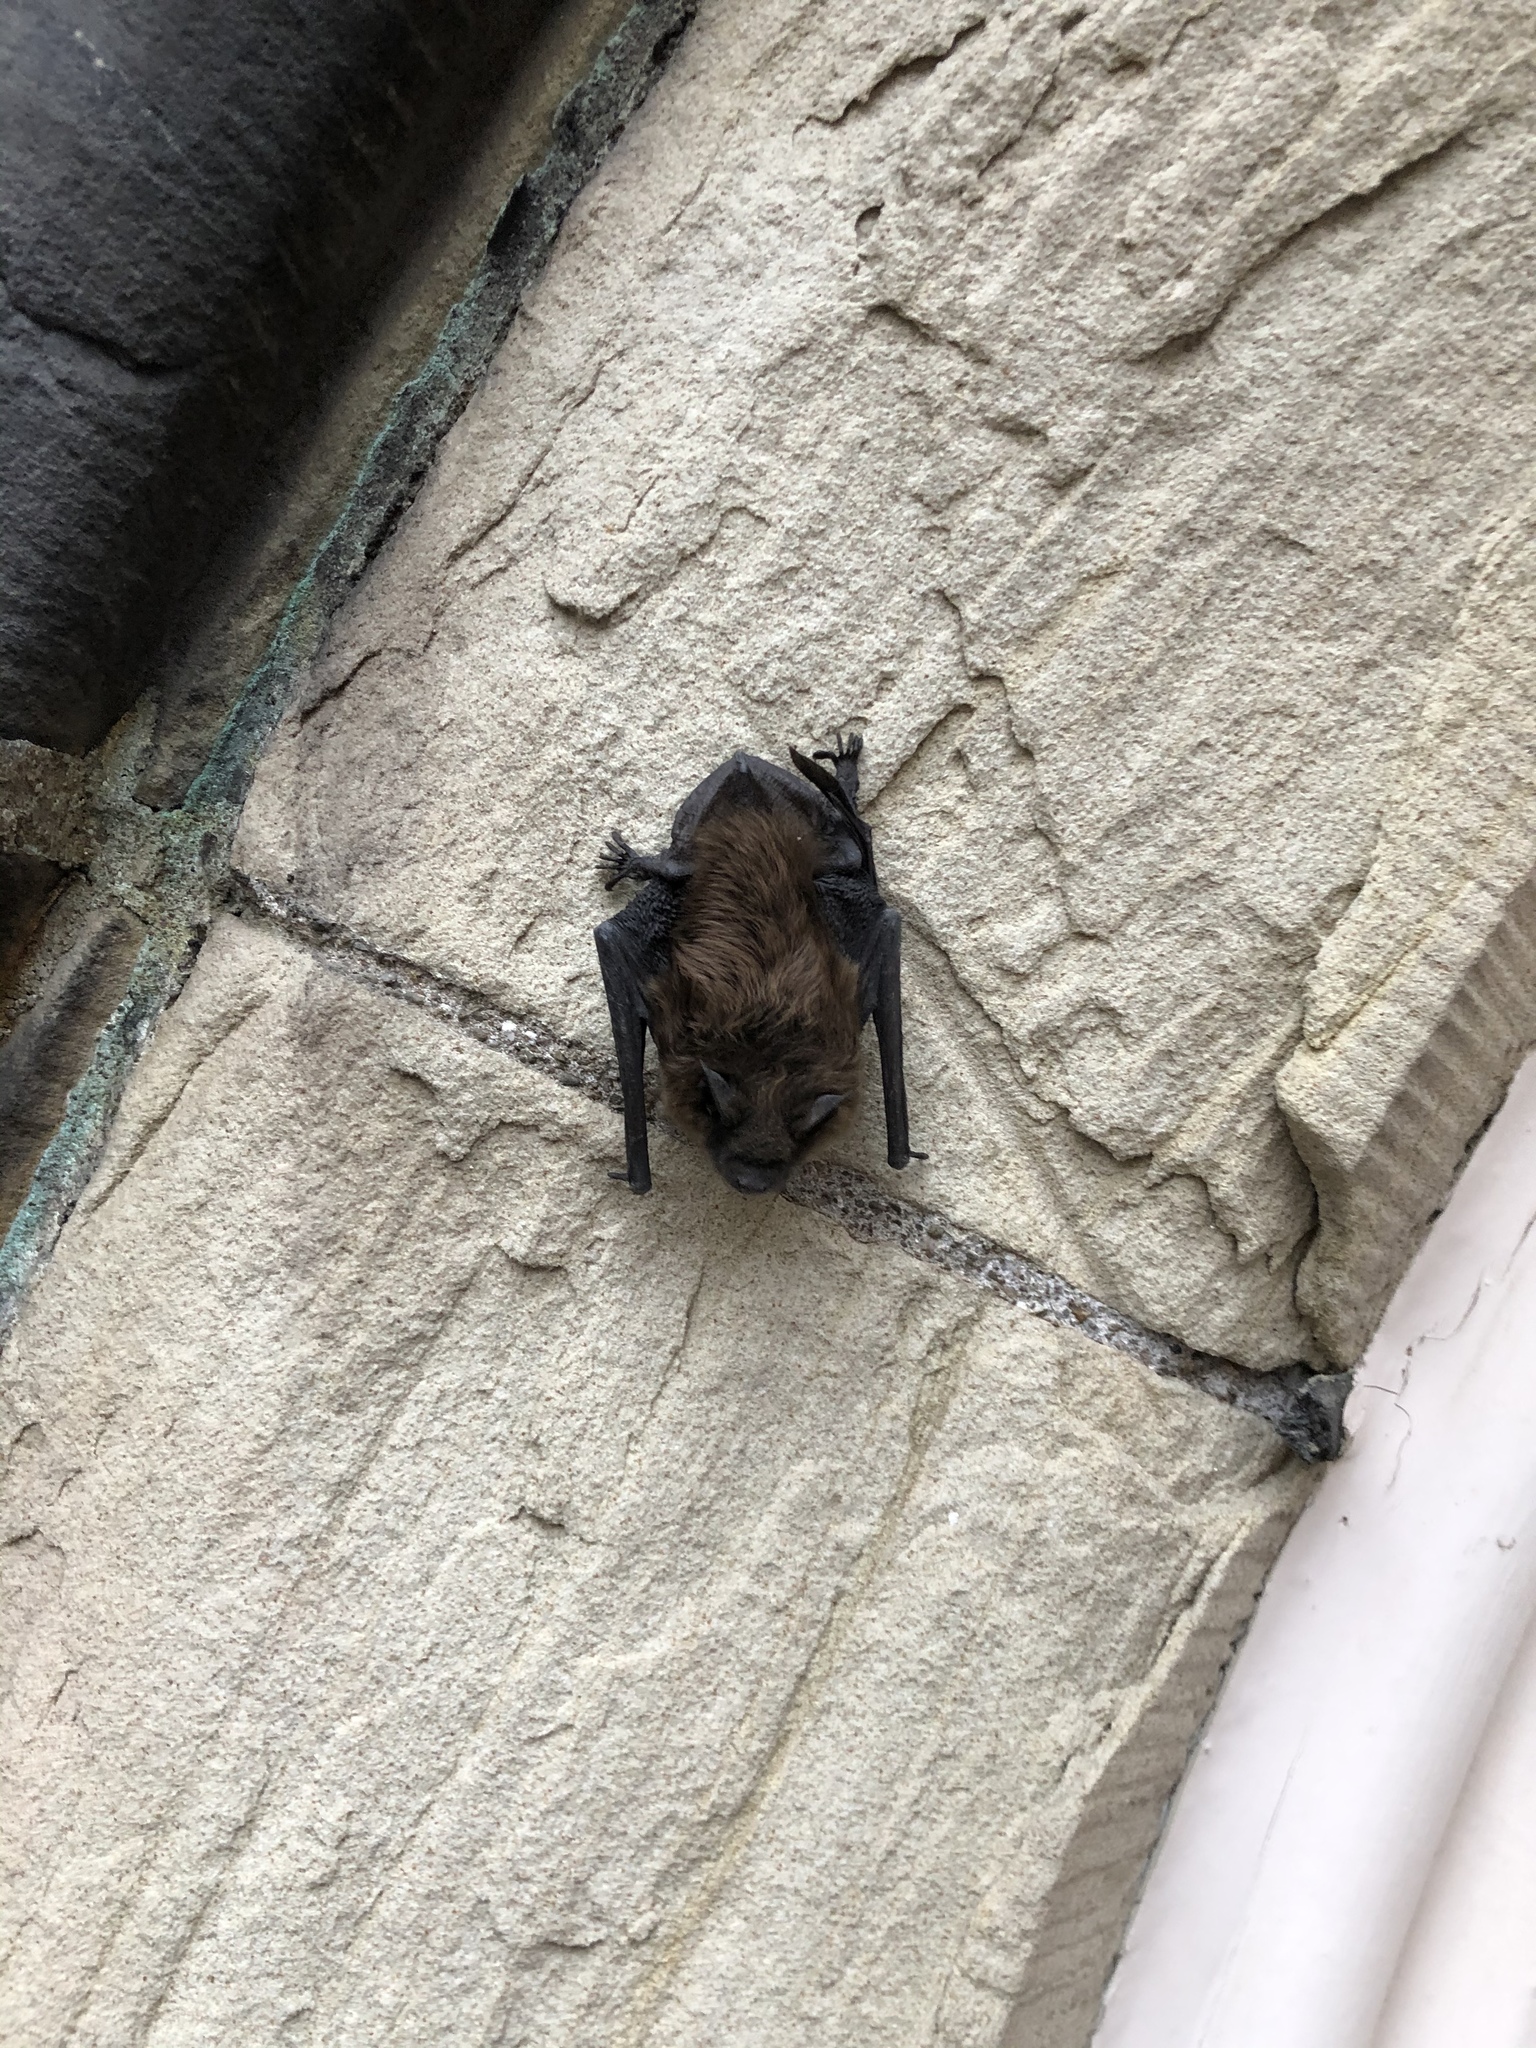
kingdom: Animalia
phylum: Chordata
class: Mammalia
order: Chiroptera
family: Vespertilionidae
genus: Eptesicus
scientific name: Eptesicus fuscus
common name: Big brown bat
